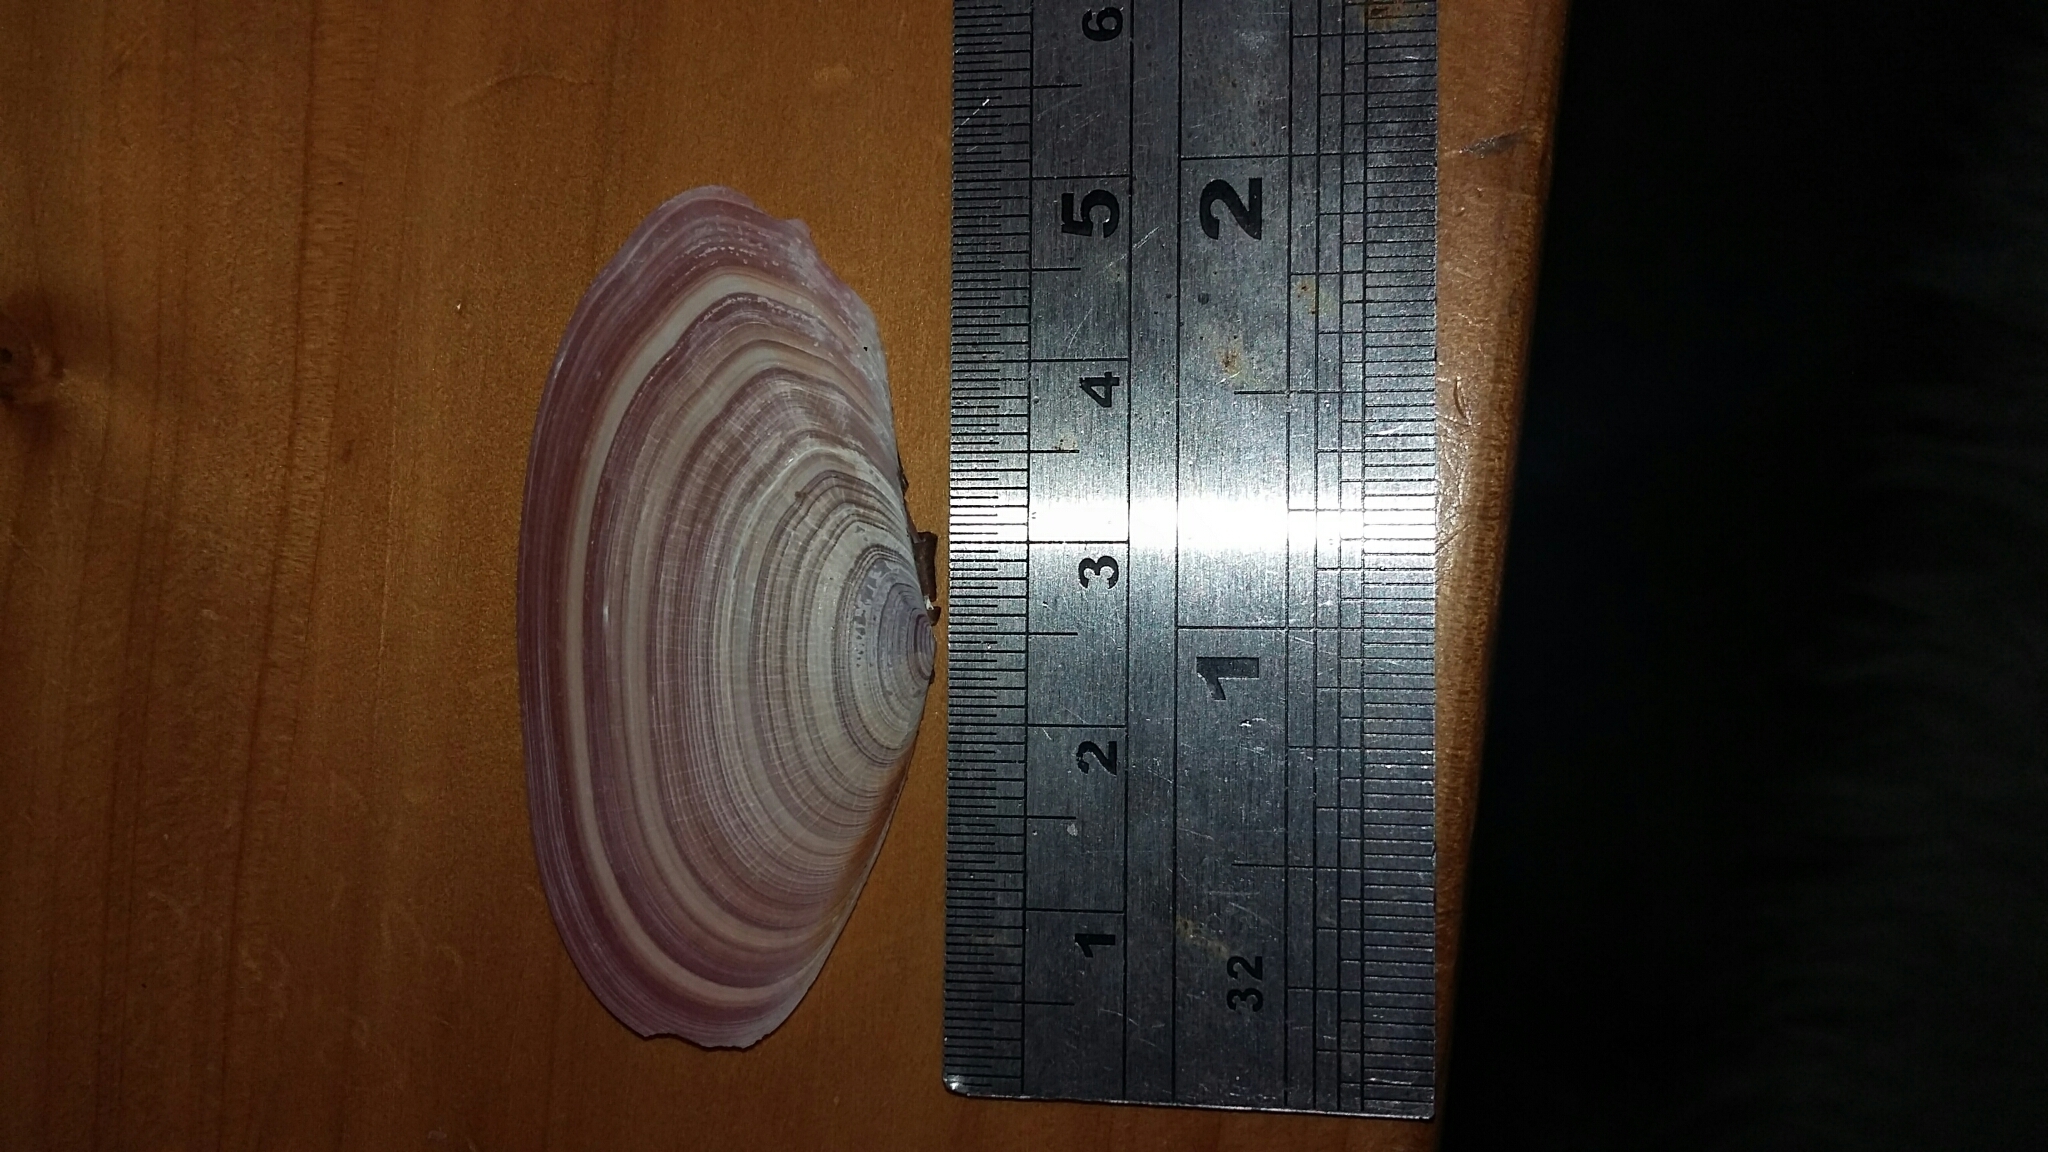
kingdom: Animalia
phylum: Mollusca
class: Bivalvia
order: Cardiida
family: Psammobiidae
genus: Gari
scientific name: Gari lineolata
